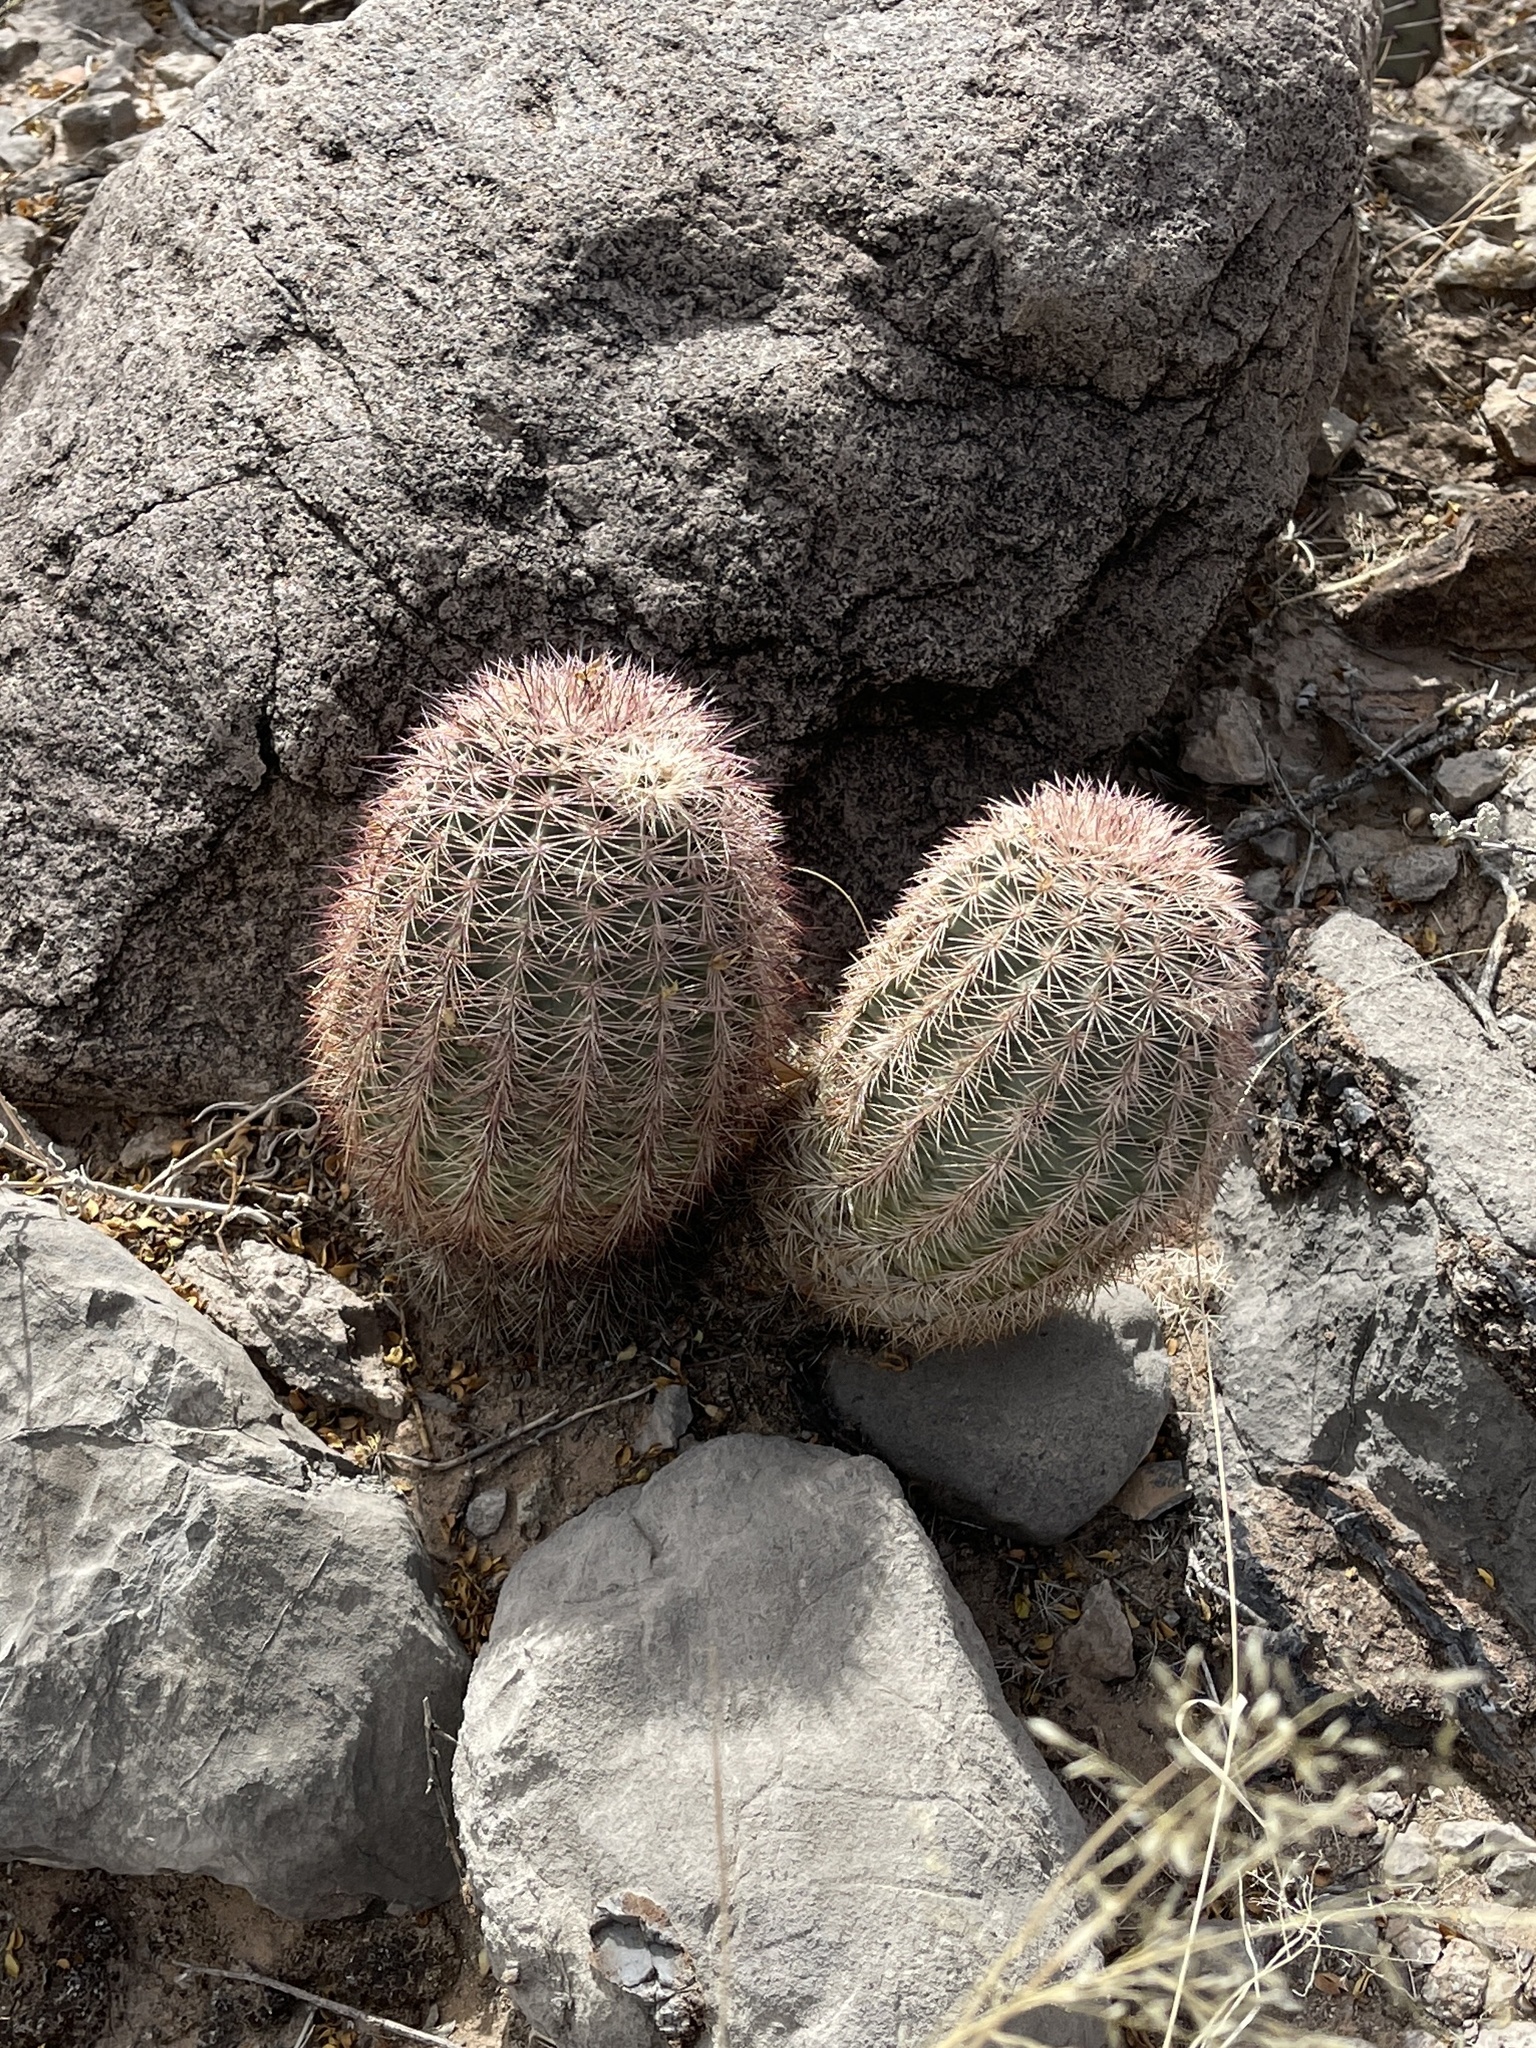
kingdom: Plantae
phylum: Tracheophyta
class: Magnoliopsida
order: Caryophyllales
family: Cactaceae
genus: Echinocereus
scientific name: Echinocereus dasyacanthus
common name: Spiny hedgehog cactus
